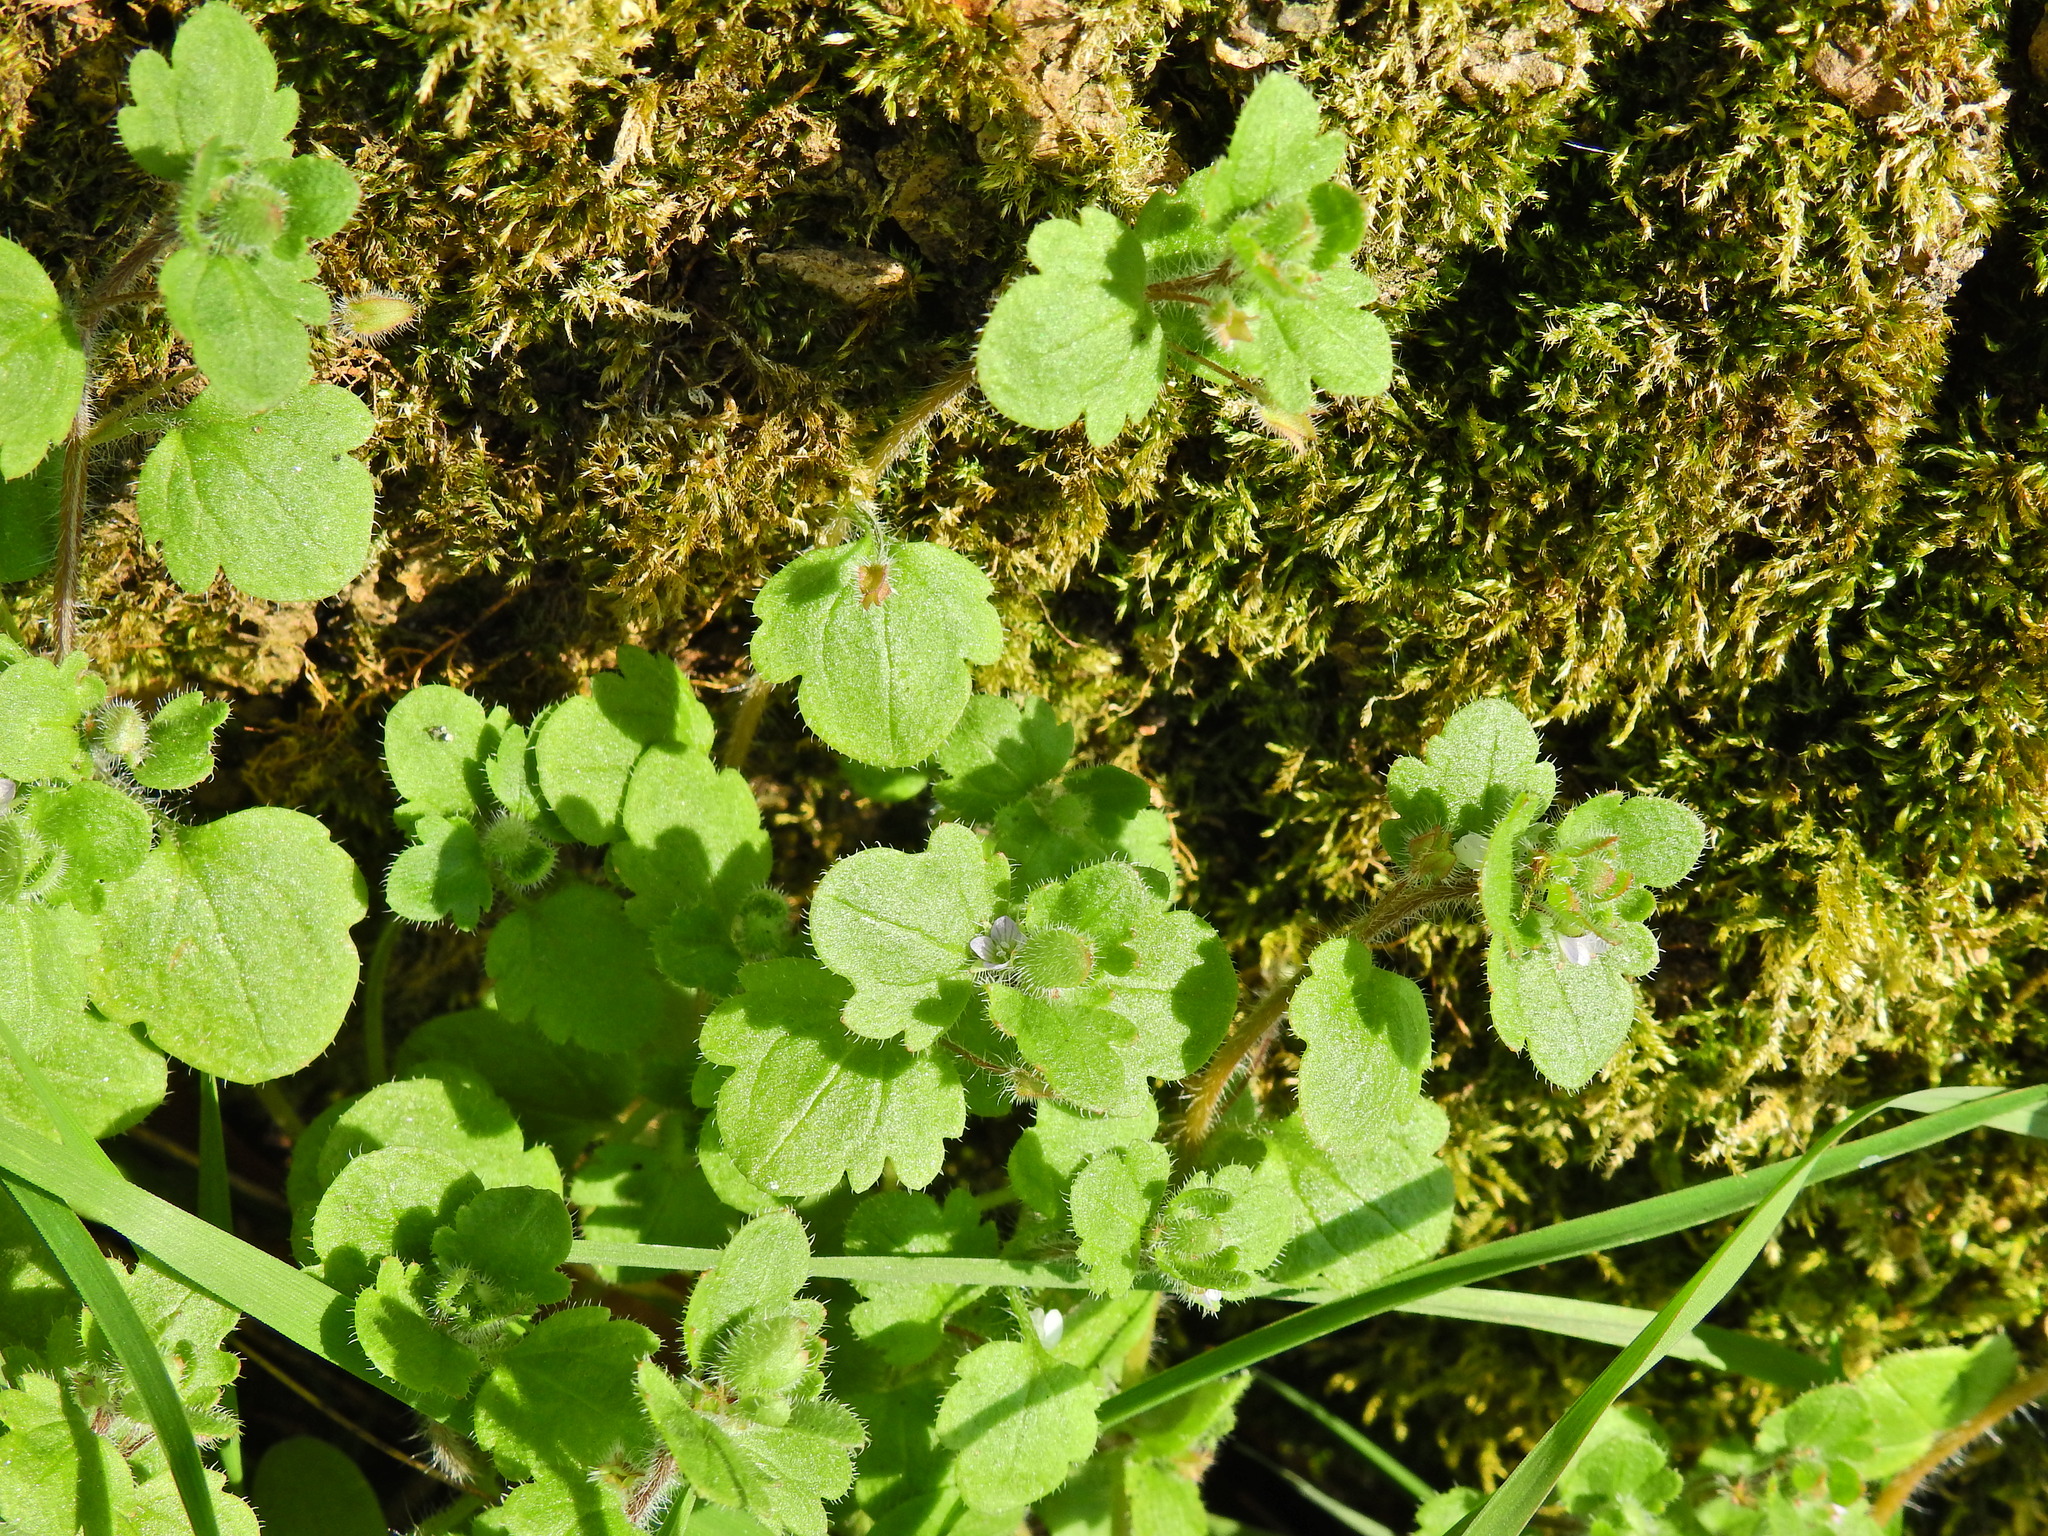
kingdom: Plantae
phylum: Tracheophyta
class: Magnoliopsida
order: Lamiales
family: Plantaginaceae
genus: Veronica
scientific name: Veronica sublobata
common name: False ivy-leaved speedwell
